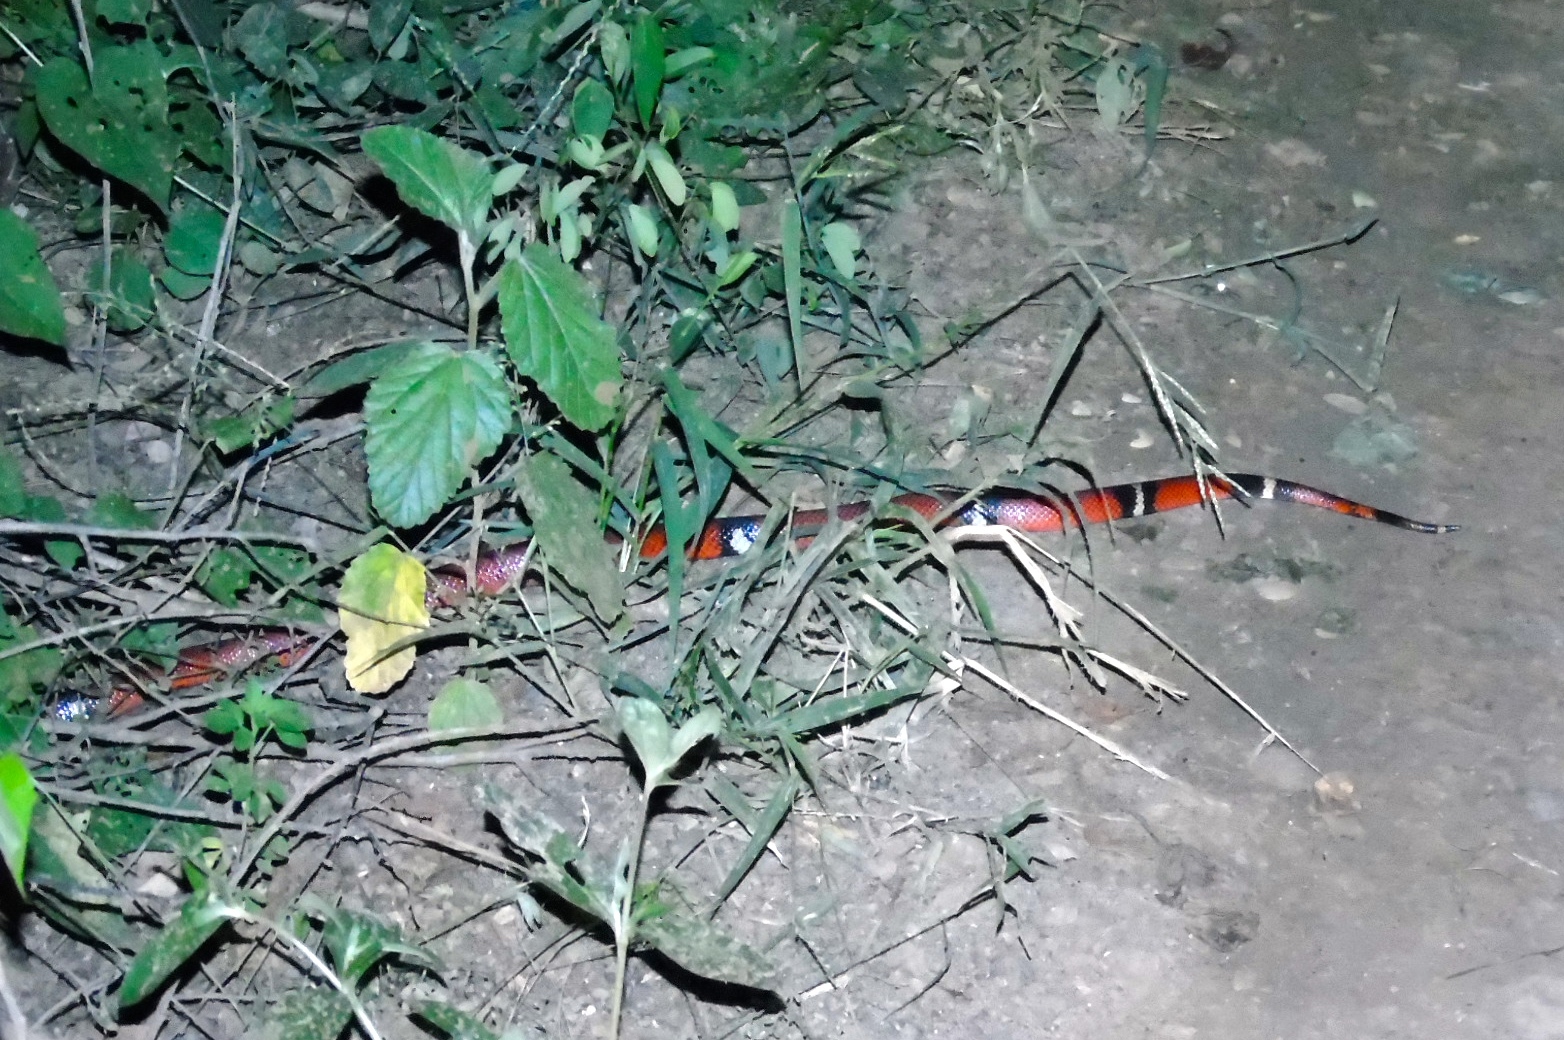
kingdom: Animalia
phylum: Chordata
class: Squamata
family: Colubridae
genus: Lampropeltis
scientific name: Lampropeltis polyzona
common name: Atlantic central american milksnake
